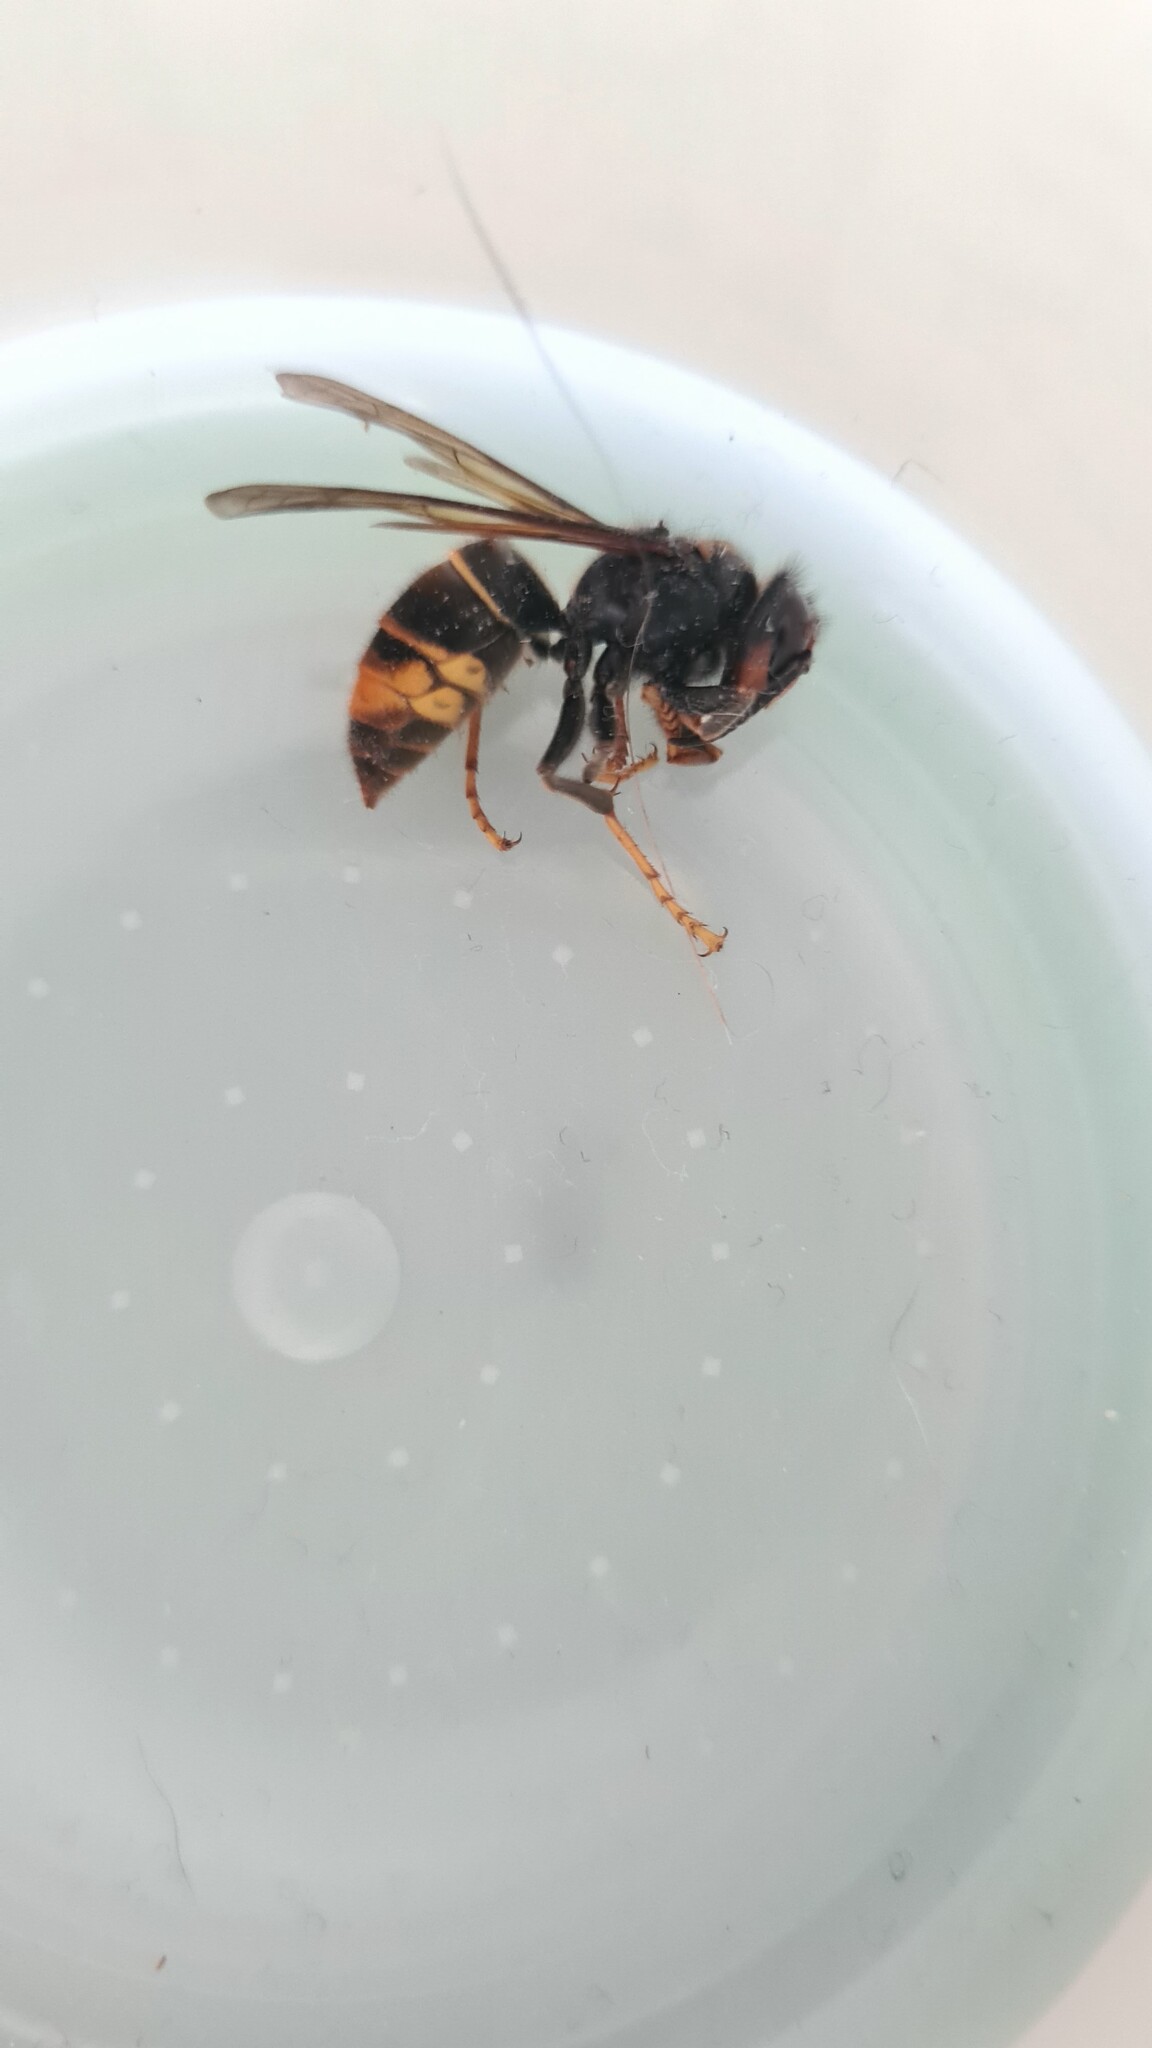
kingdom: Animalia
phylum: Arthropoda
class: Insecta
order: Hymenoptera
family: Vespidae
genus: Vespa
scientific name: Vespa velutina
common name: Asian hornet
